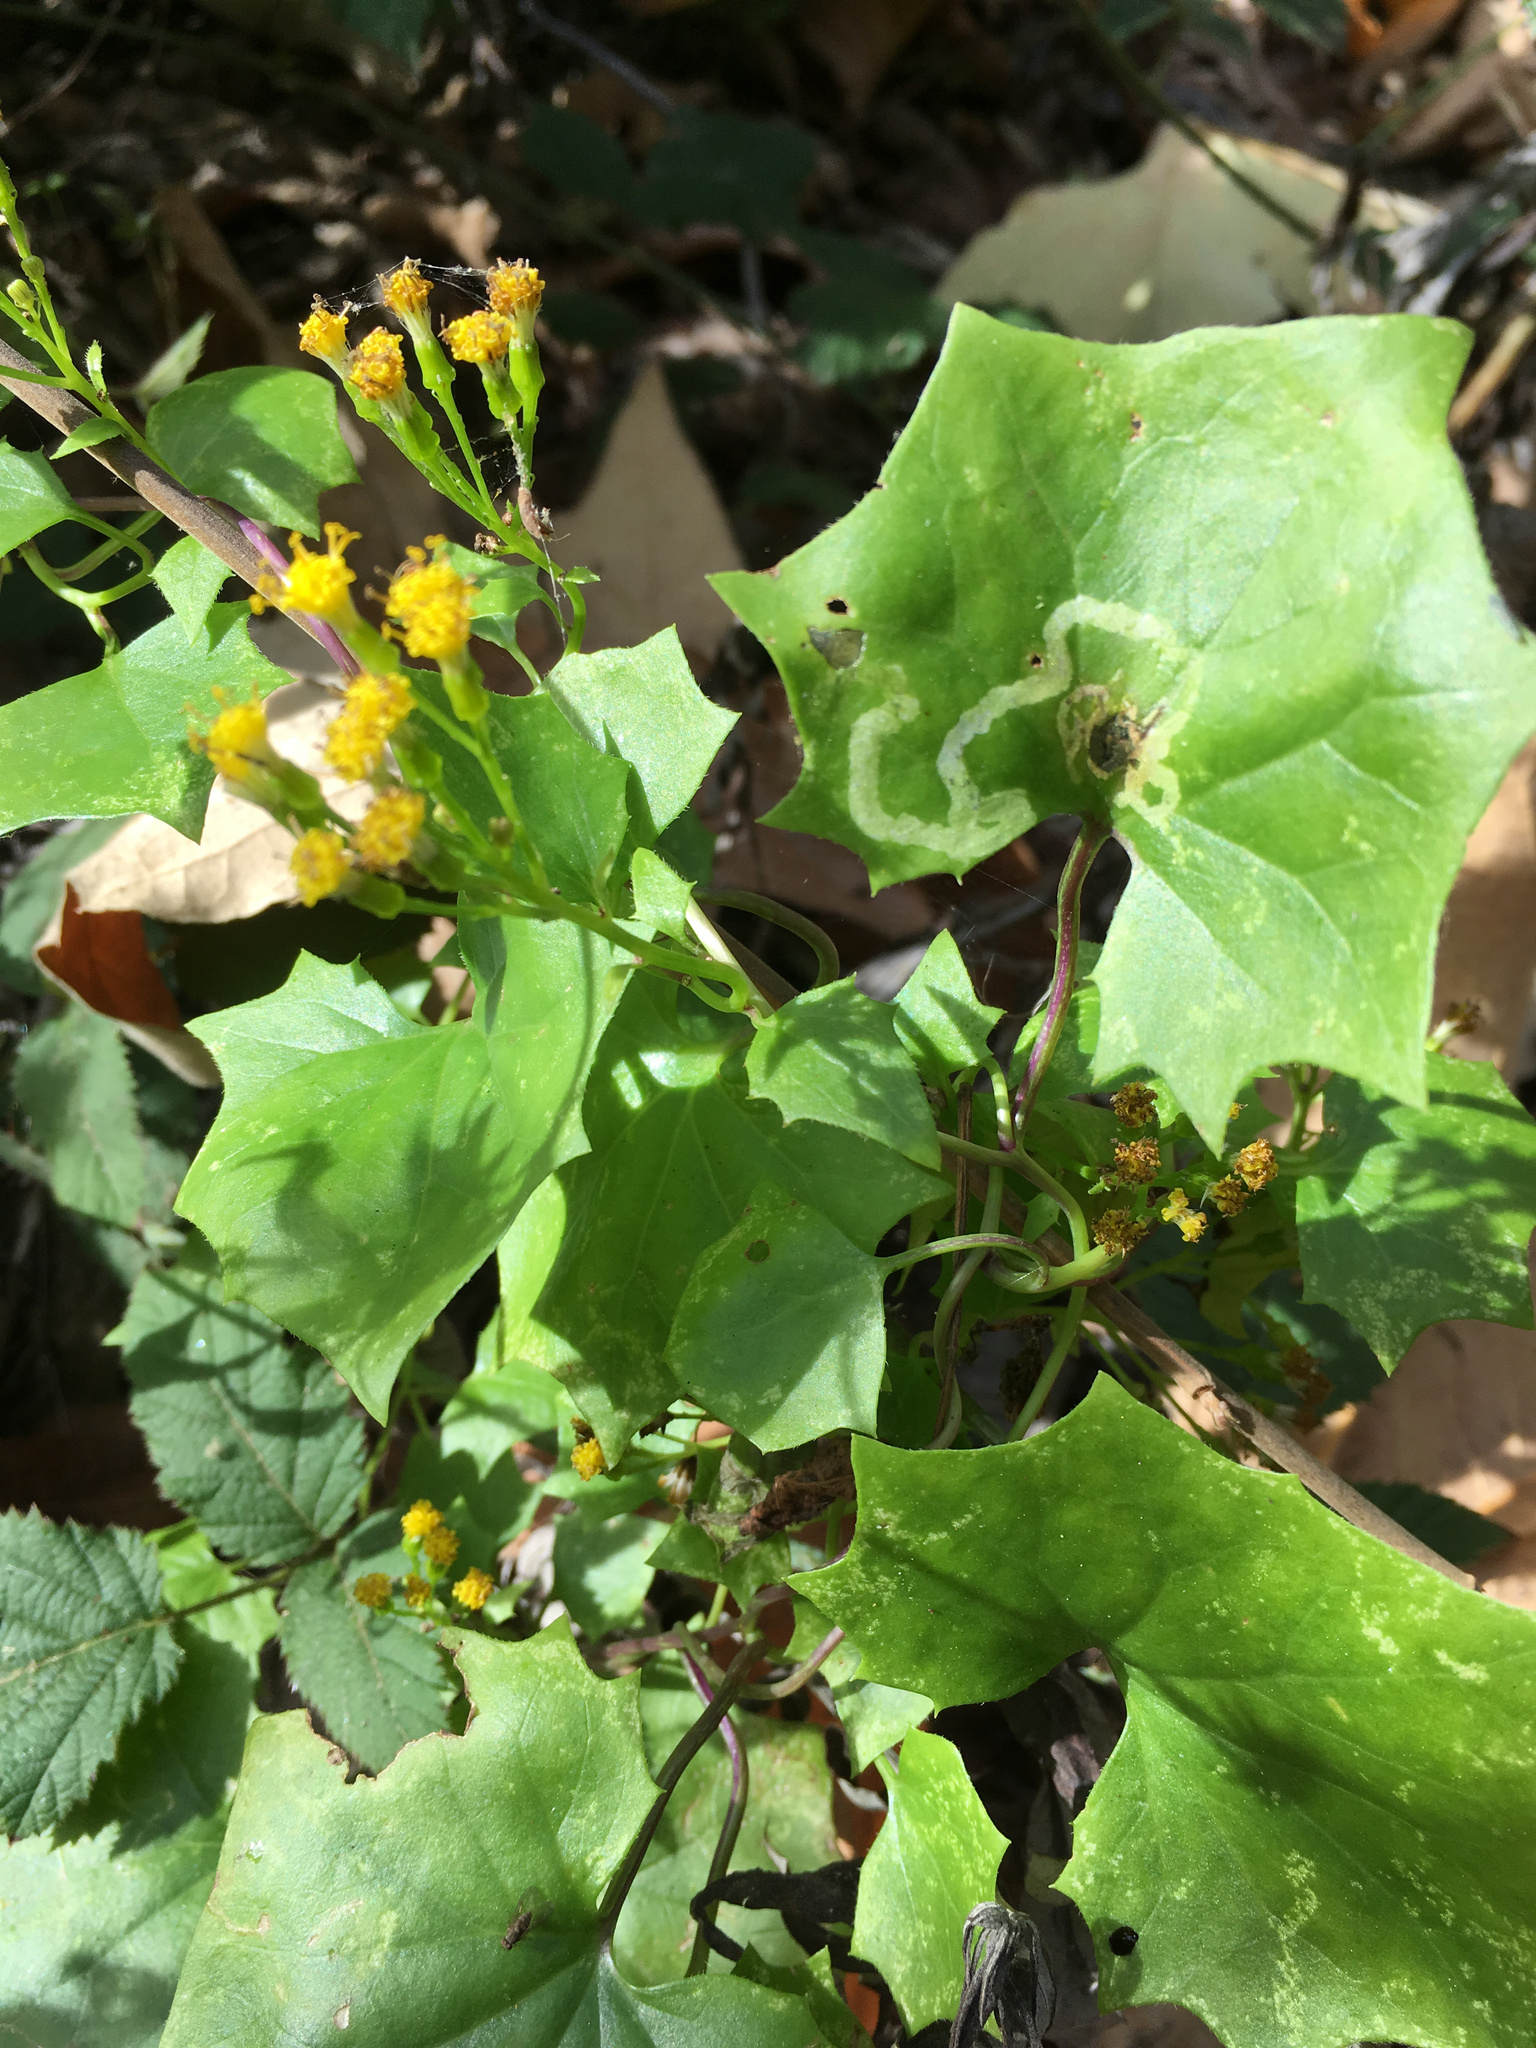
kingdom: Plantae
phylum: Tracheophyta
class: Magnoliopsida
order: Asterales
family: Asteraceae
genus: Delairea
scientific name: Delairea odorata
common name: Cape-ivy
